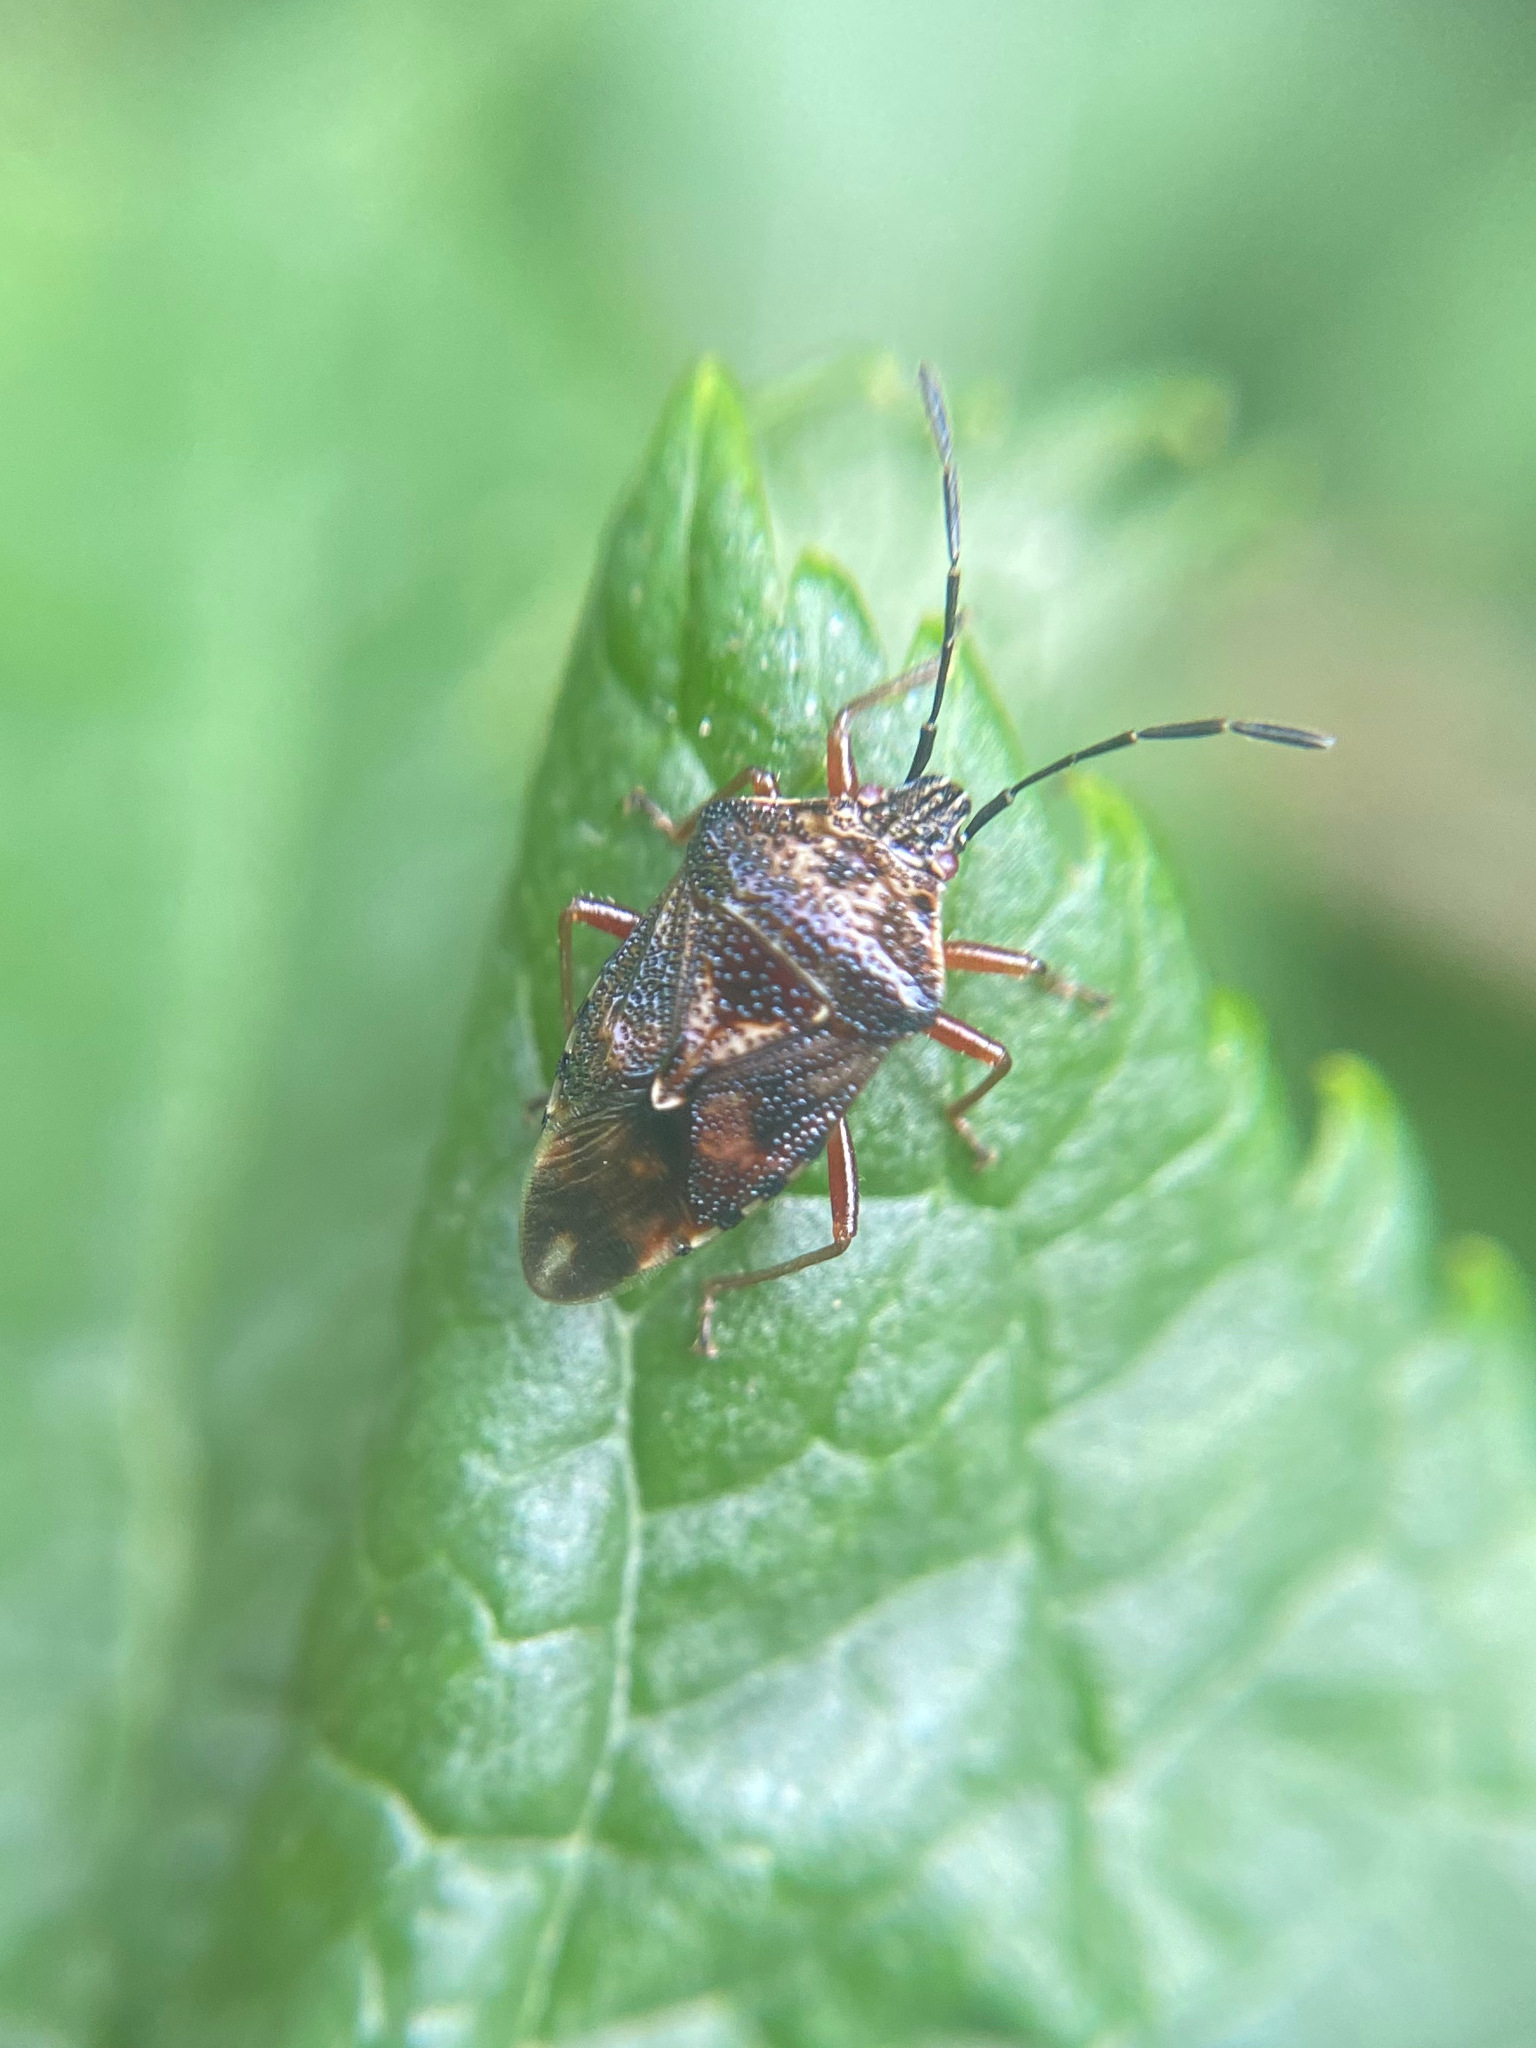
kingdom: Animalia
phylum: Arthropoda
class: Insecta
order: Hemiptera
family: Acanthosomatidae
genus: Elasmucha
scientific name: Elasmucha lateralis
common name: Shield bug
